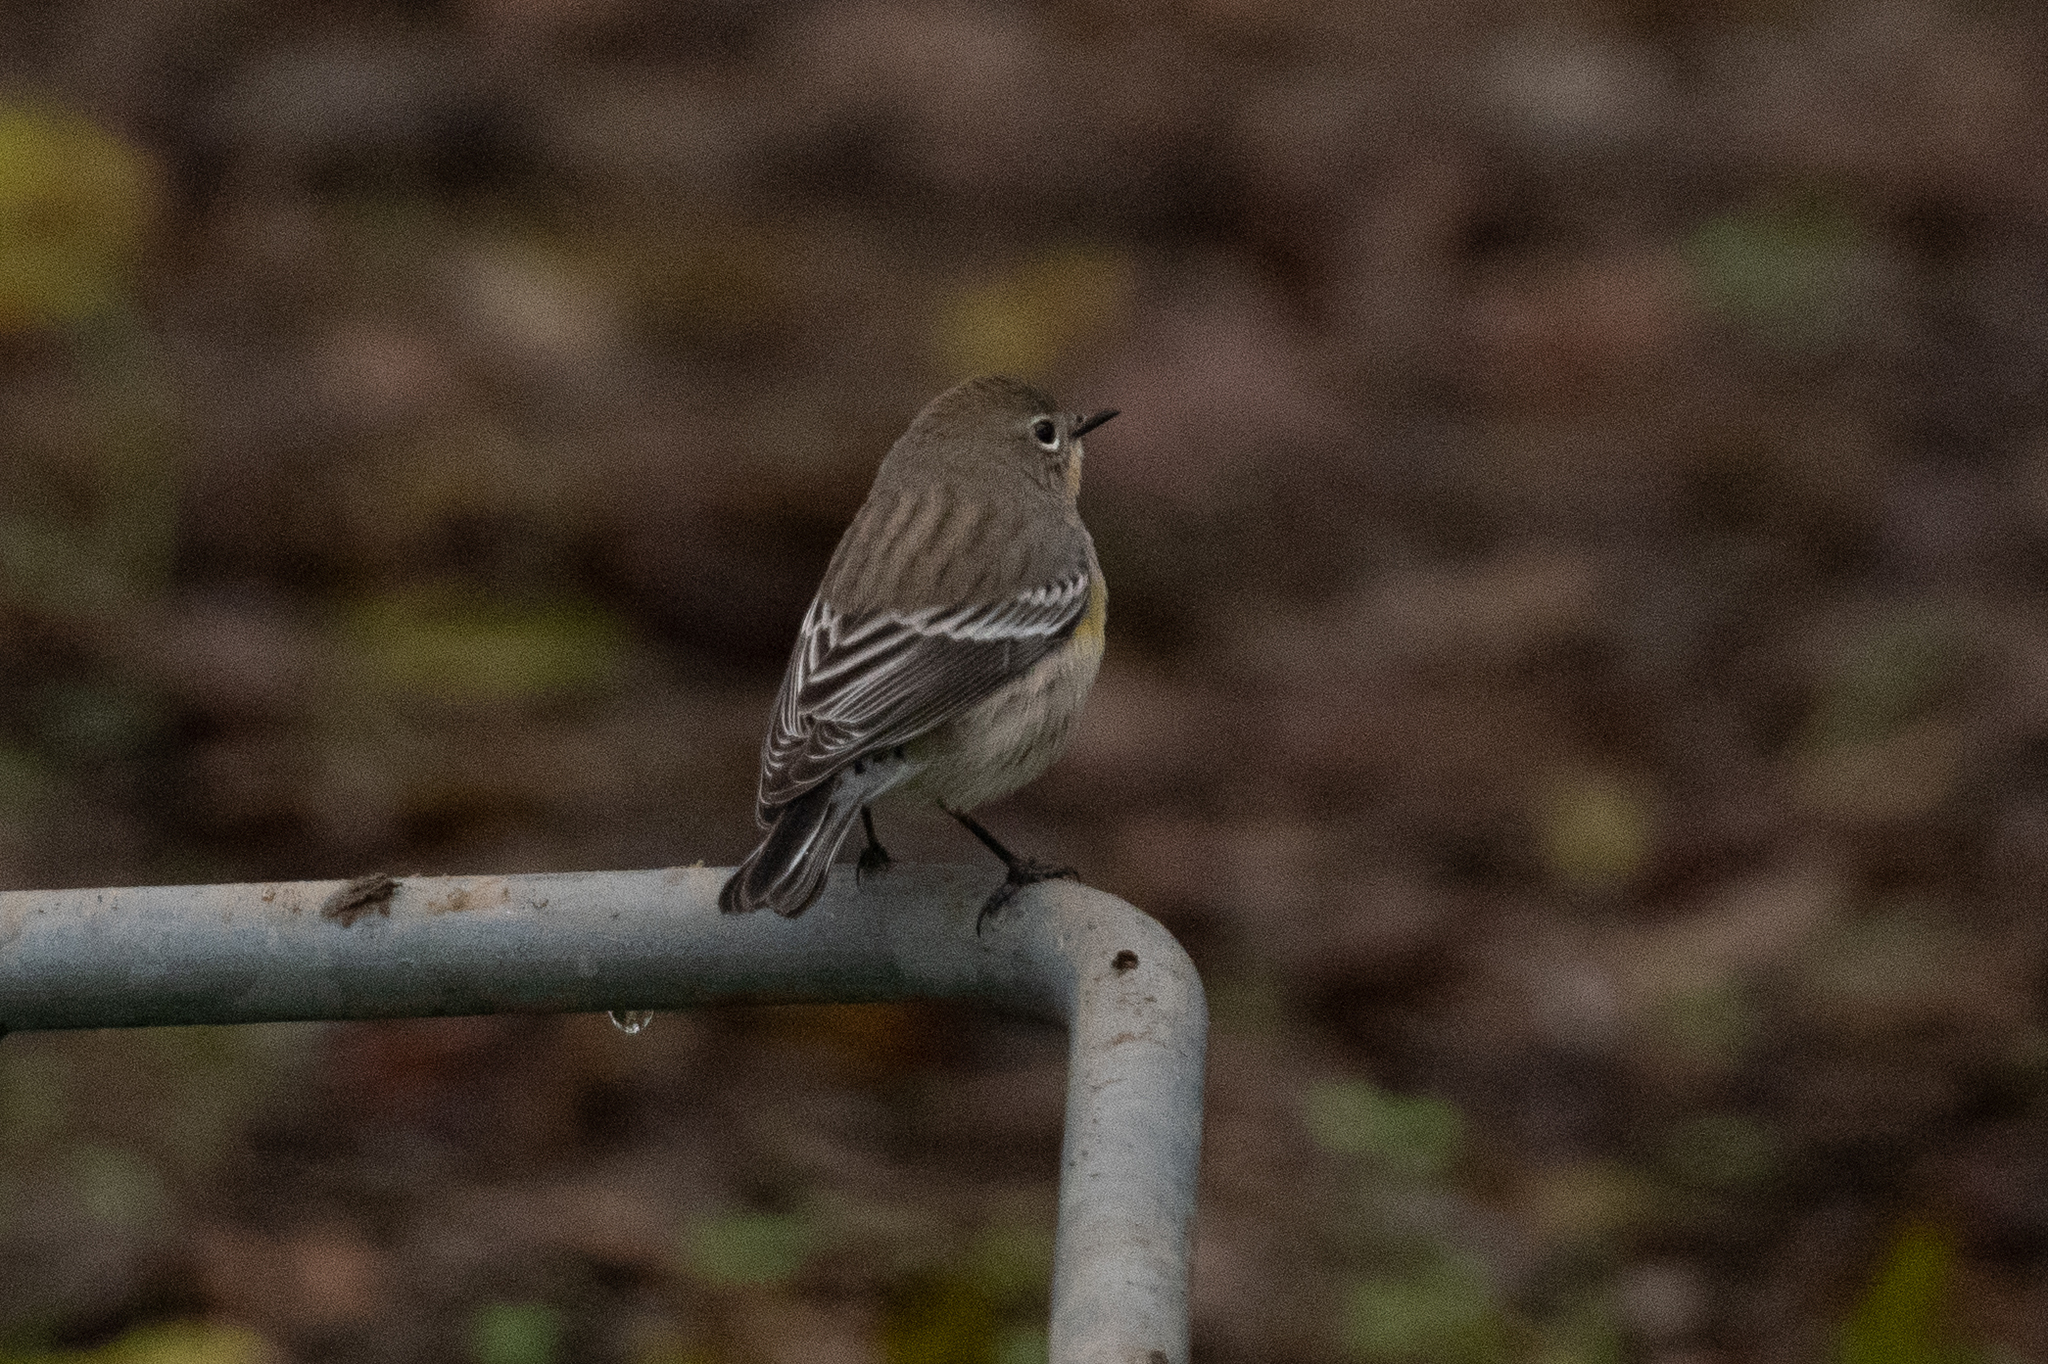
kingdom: Animalia
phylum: Chordata
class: Aves
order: Passeriformes
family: Parulidae
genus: Setophaga
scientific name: Setophaga coronata
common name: Myrtle warbler
